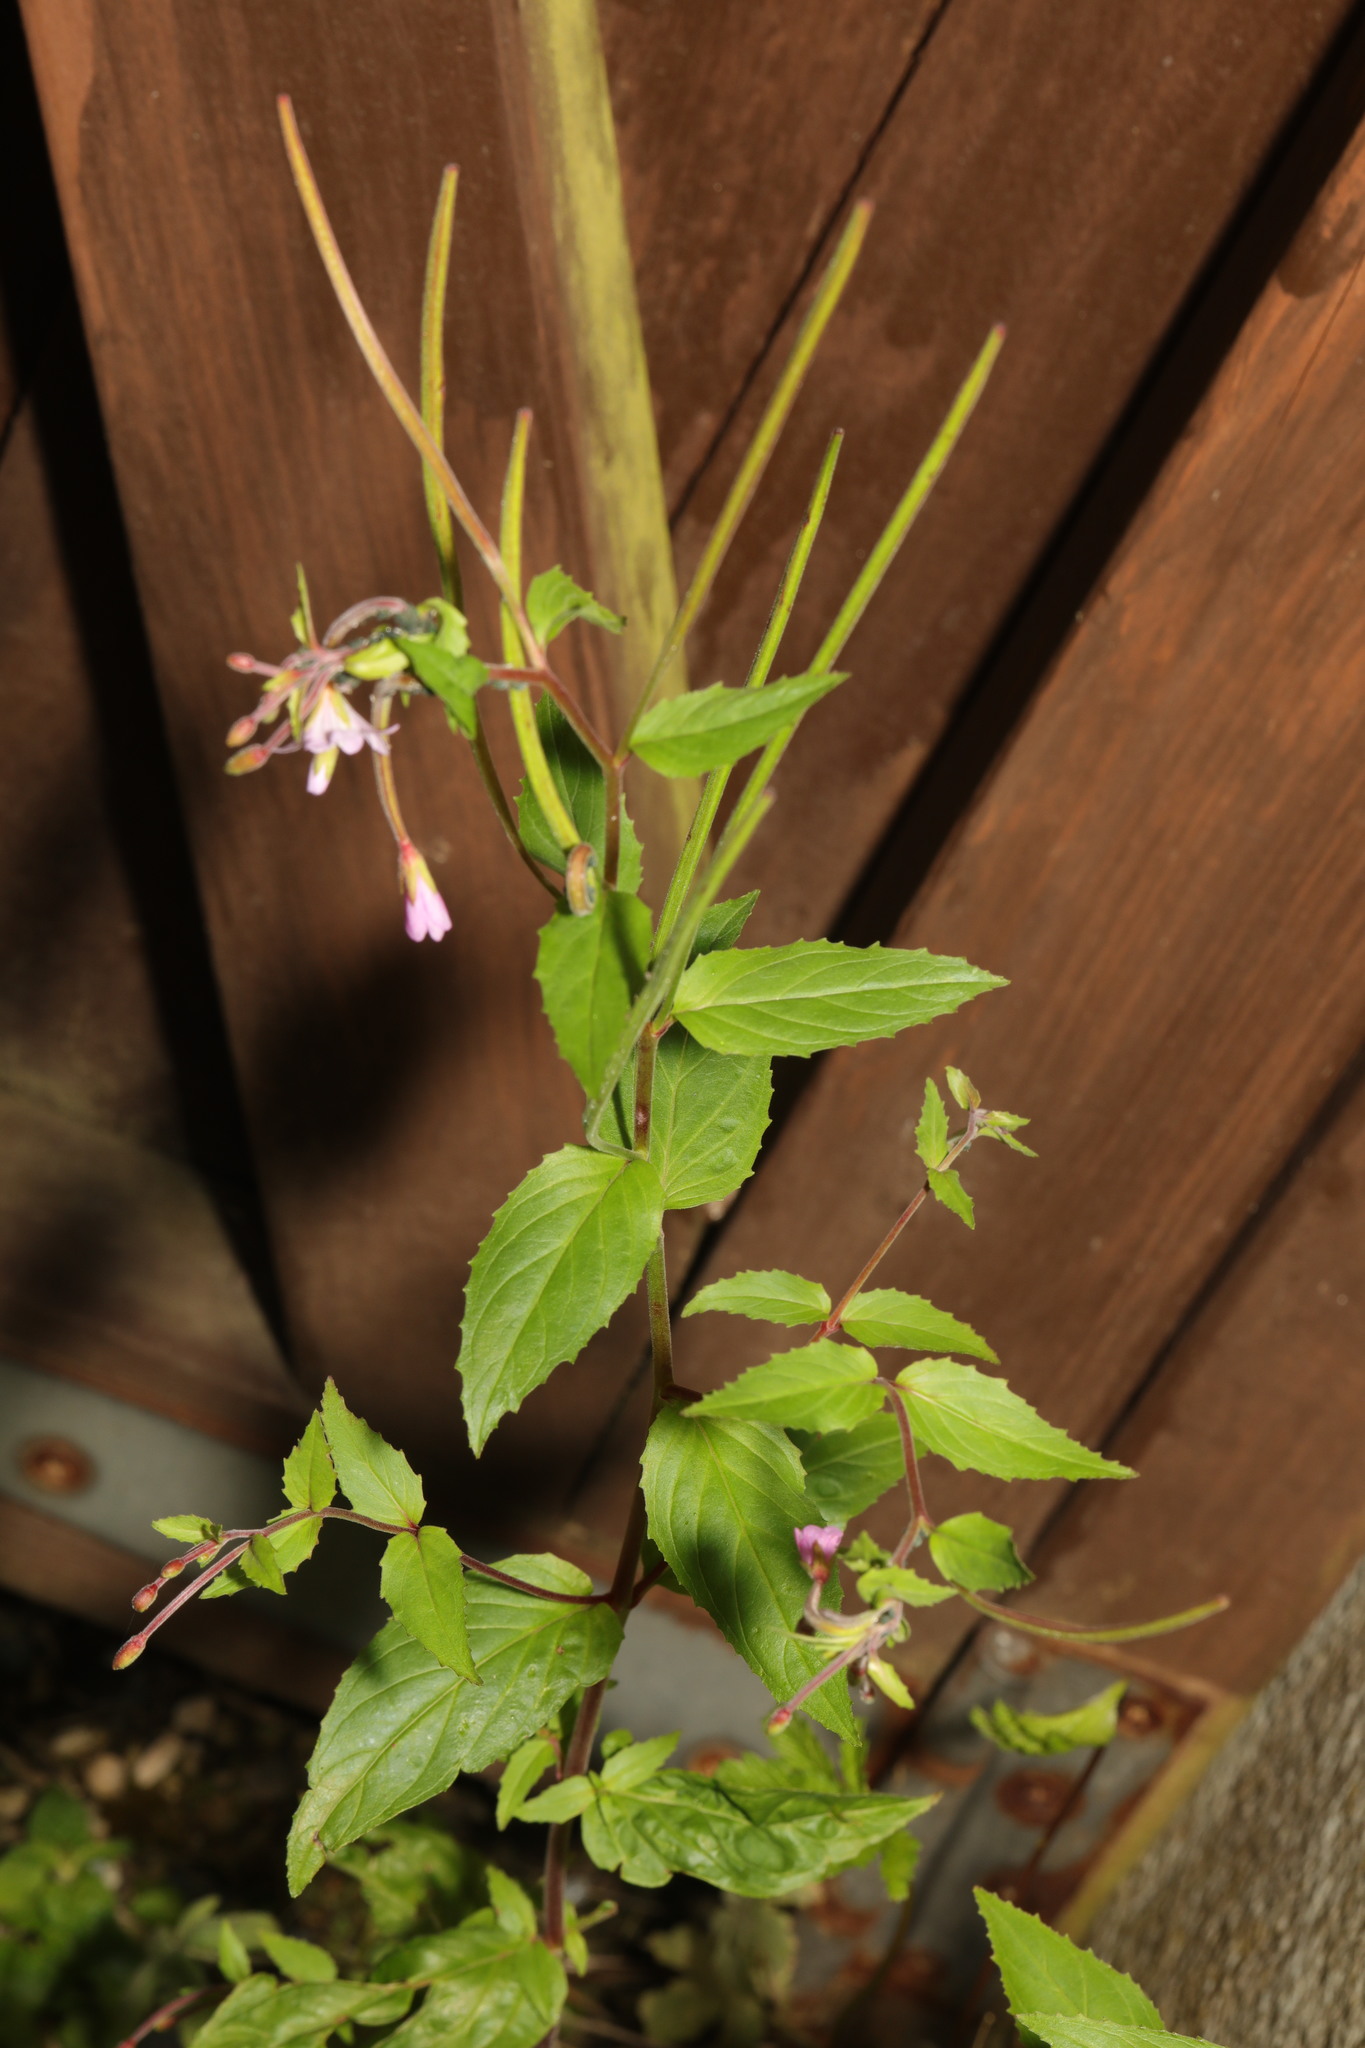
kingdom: Plantae
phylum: Tracheophyta
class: Magnoliopsida
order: Myrtales
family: Onagraceae
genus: Epilobium
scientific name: Epilobium montanum
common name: Broad-leaved willowherb
